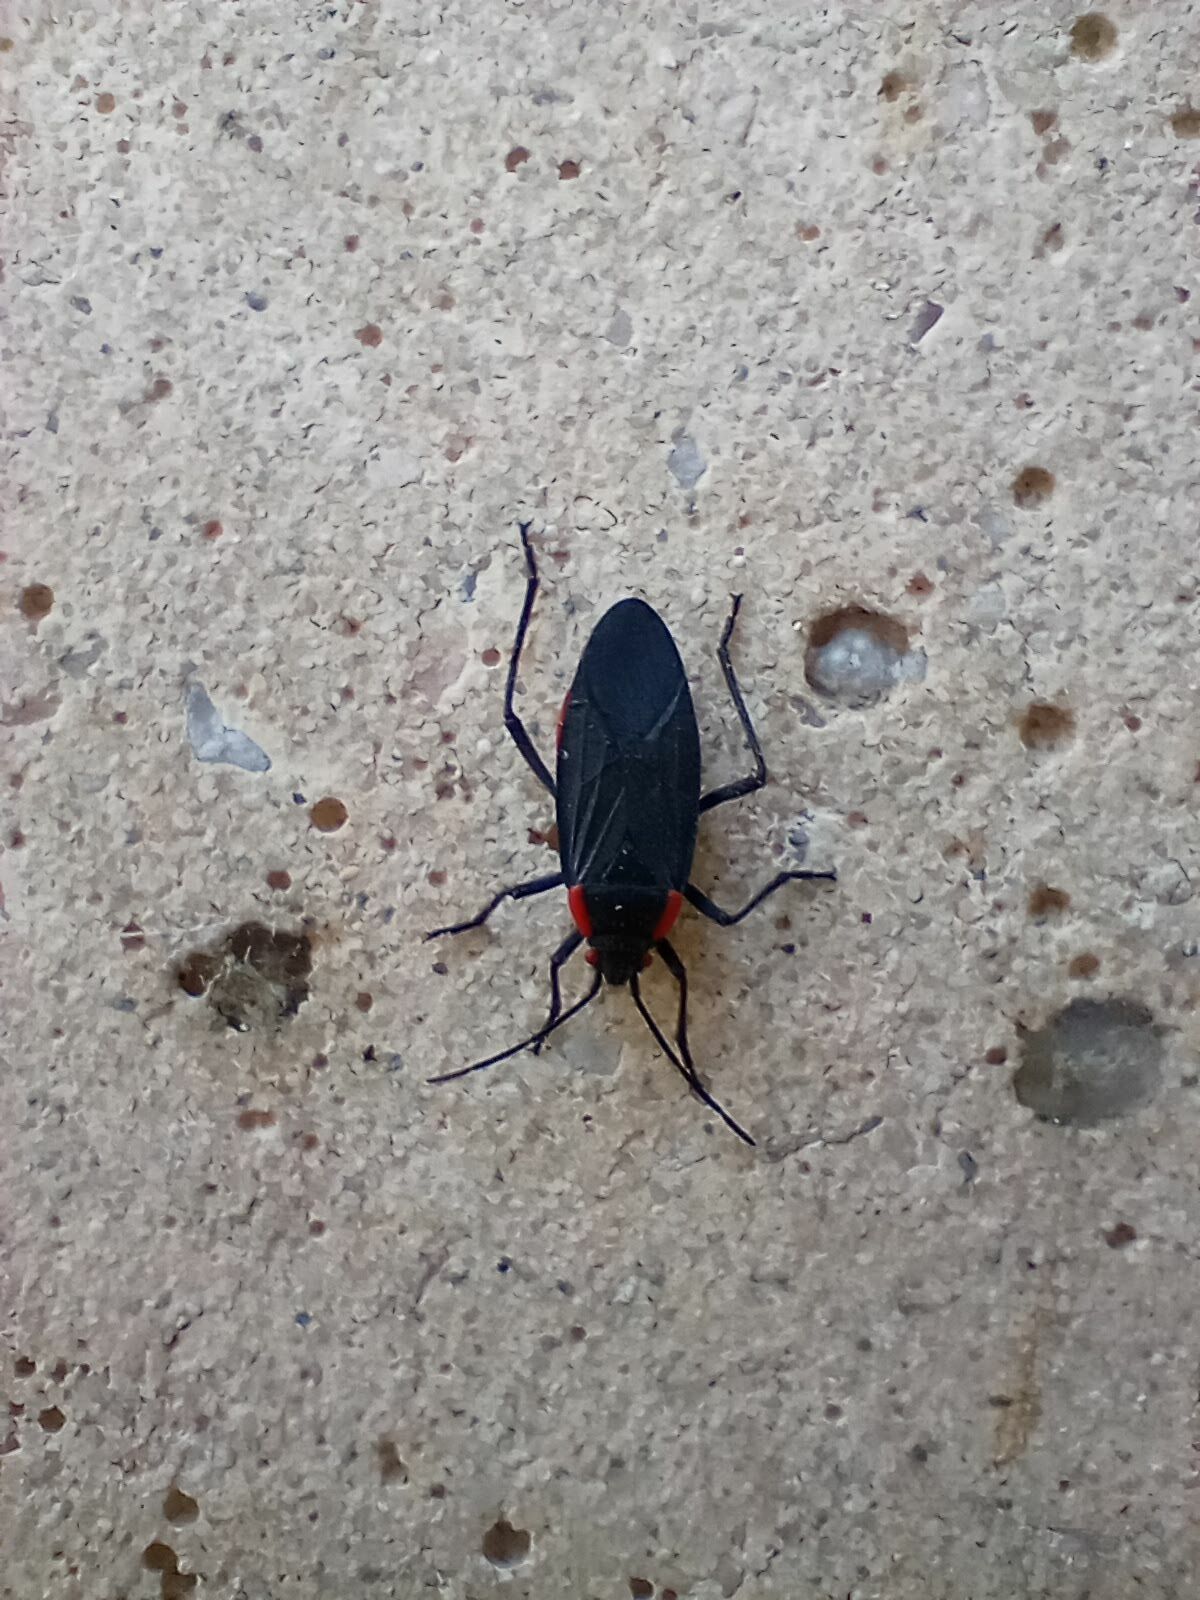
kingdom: Animalia
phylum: Arthropoda
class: Insecta
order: Hemiptera
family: Rhopalidae
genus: Jadera
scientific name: Jadera haematoloma
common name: Red-shouldered bug
